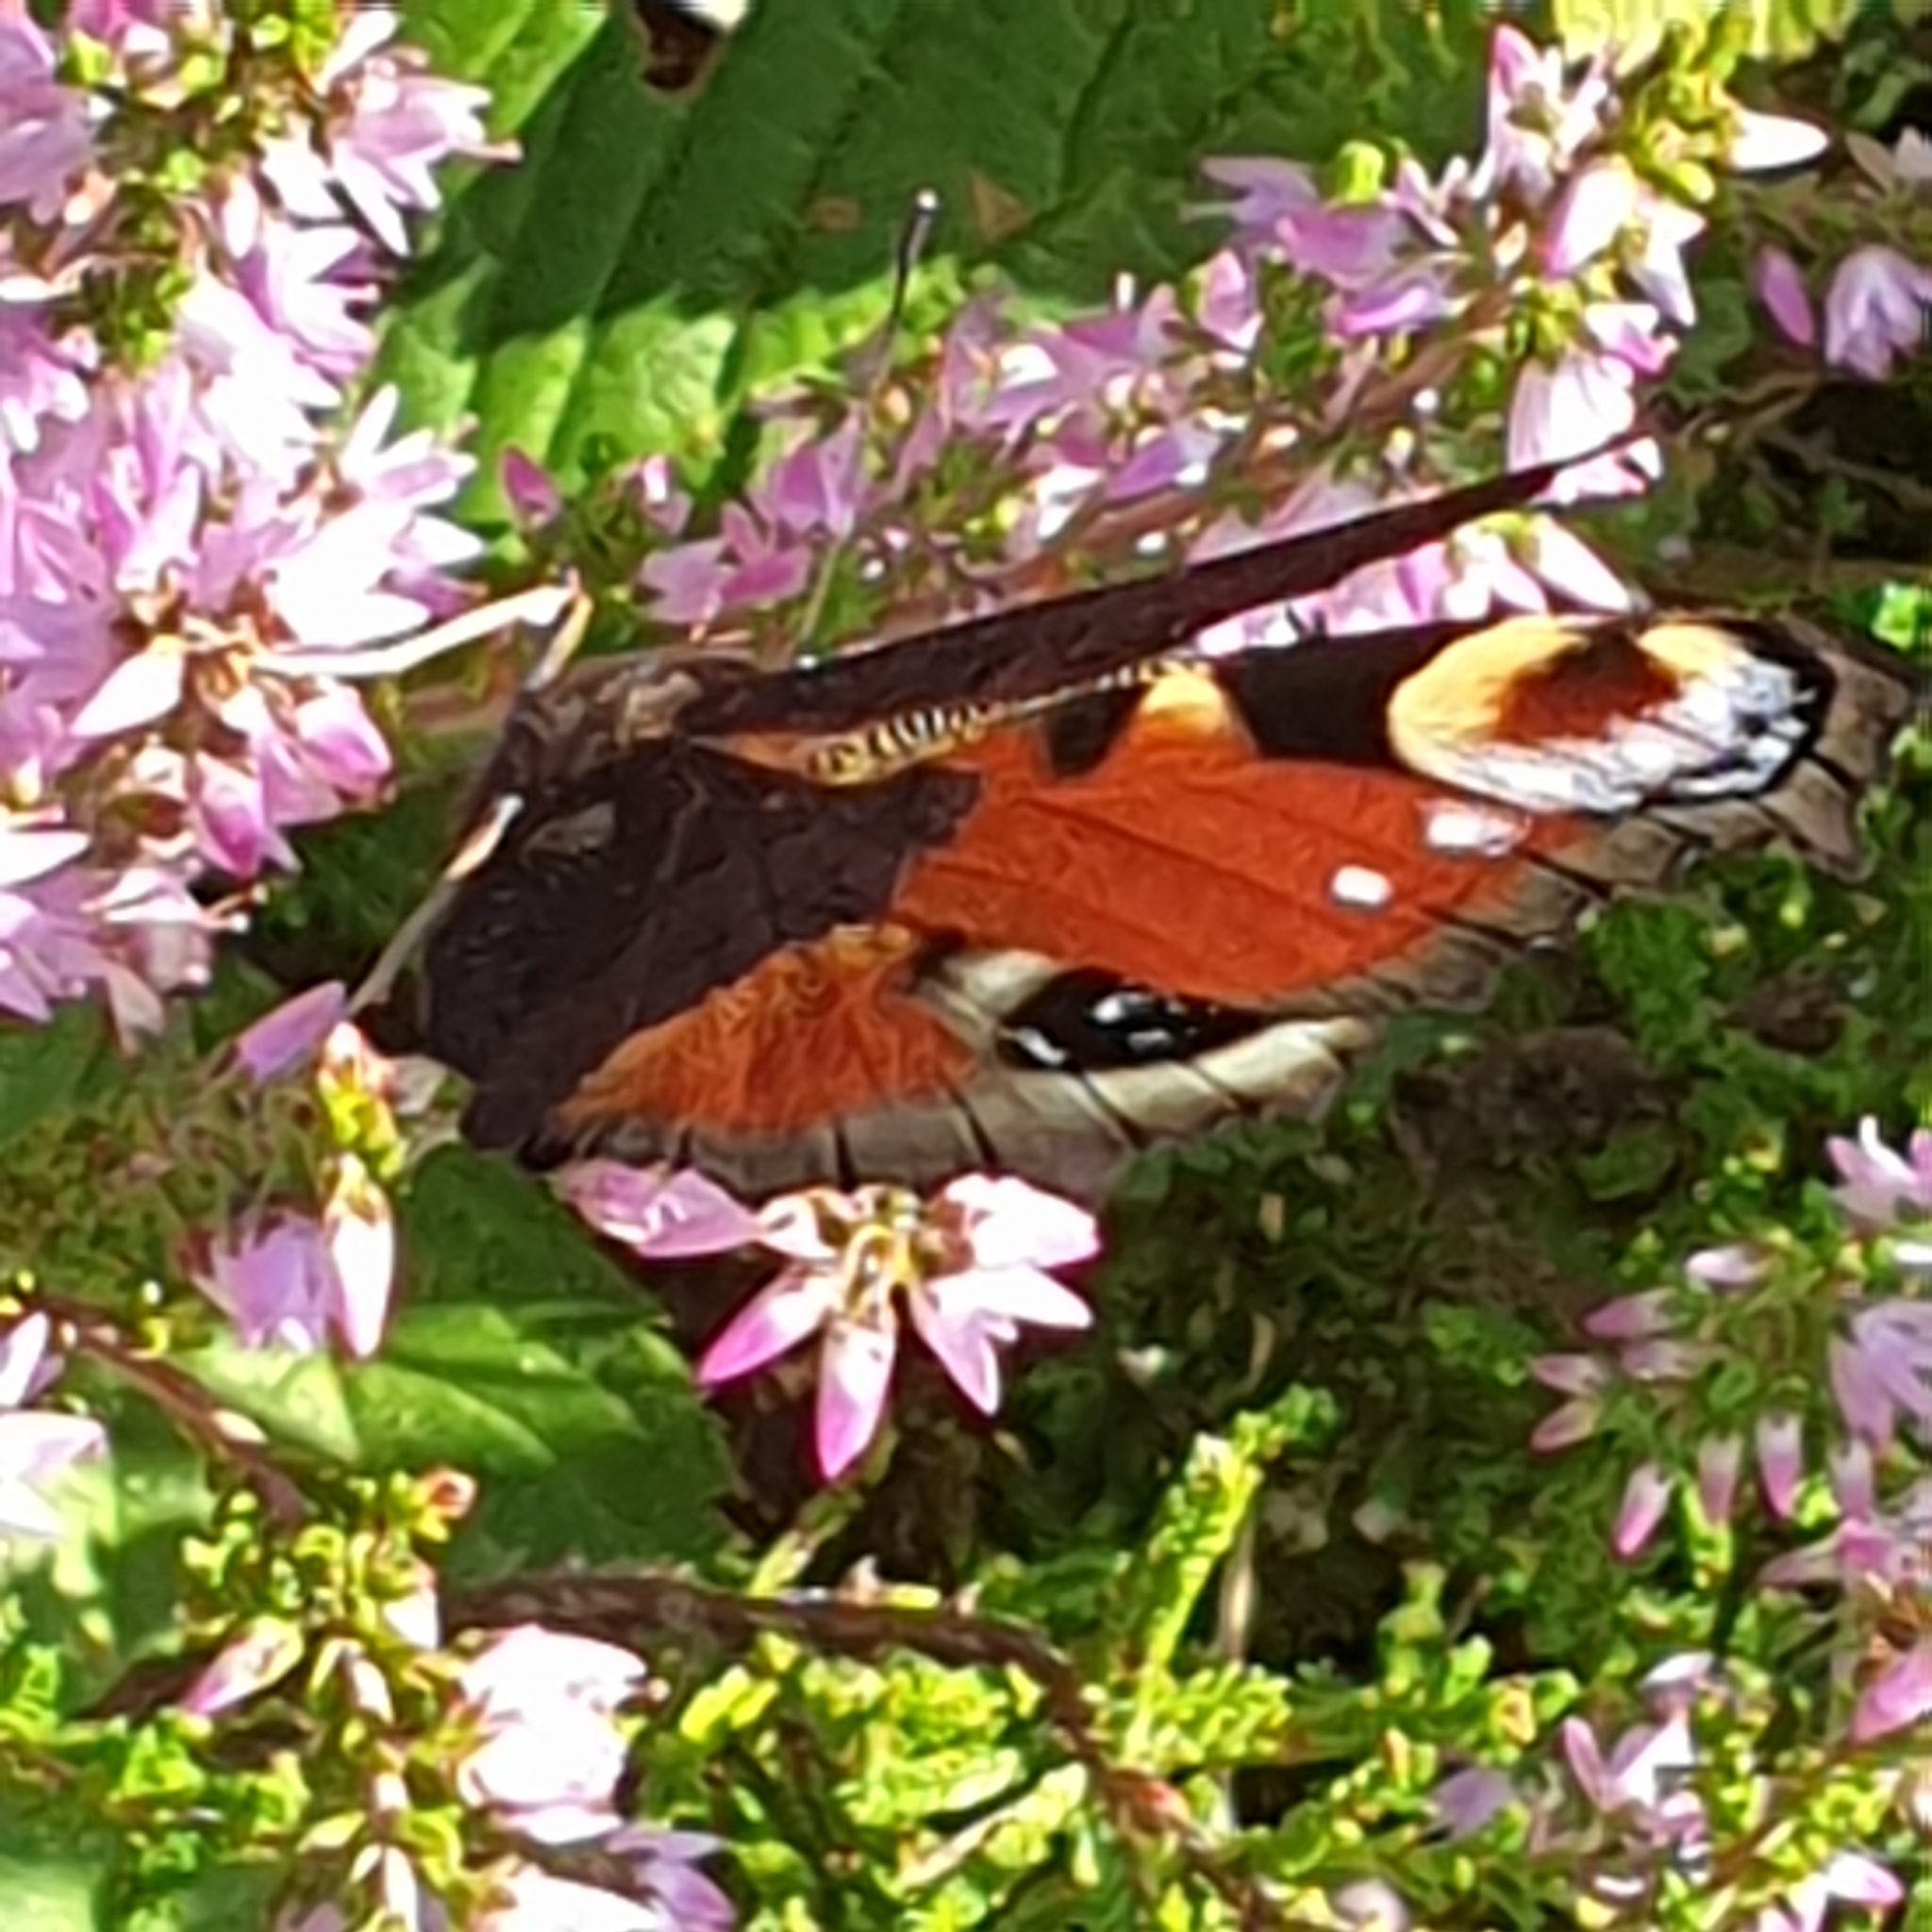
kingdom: Animalia
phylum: Arthropoda
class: Insecta
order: Lepidoptera
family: Nymphalidae
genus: Aglais
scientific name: Aglais io
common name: Peacock
